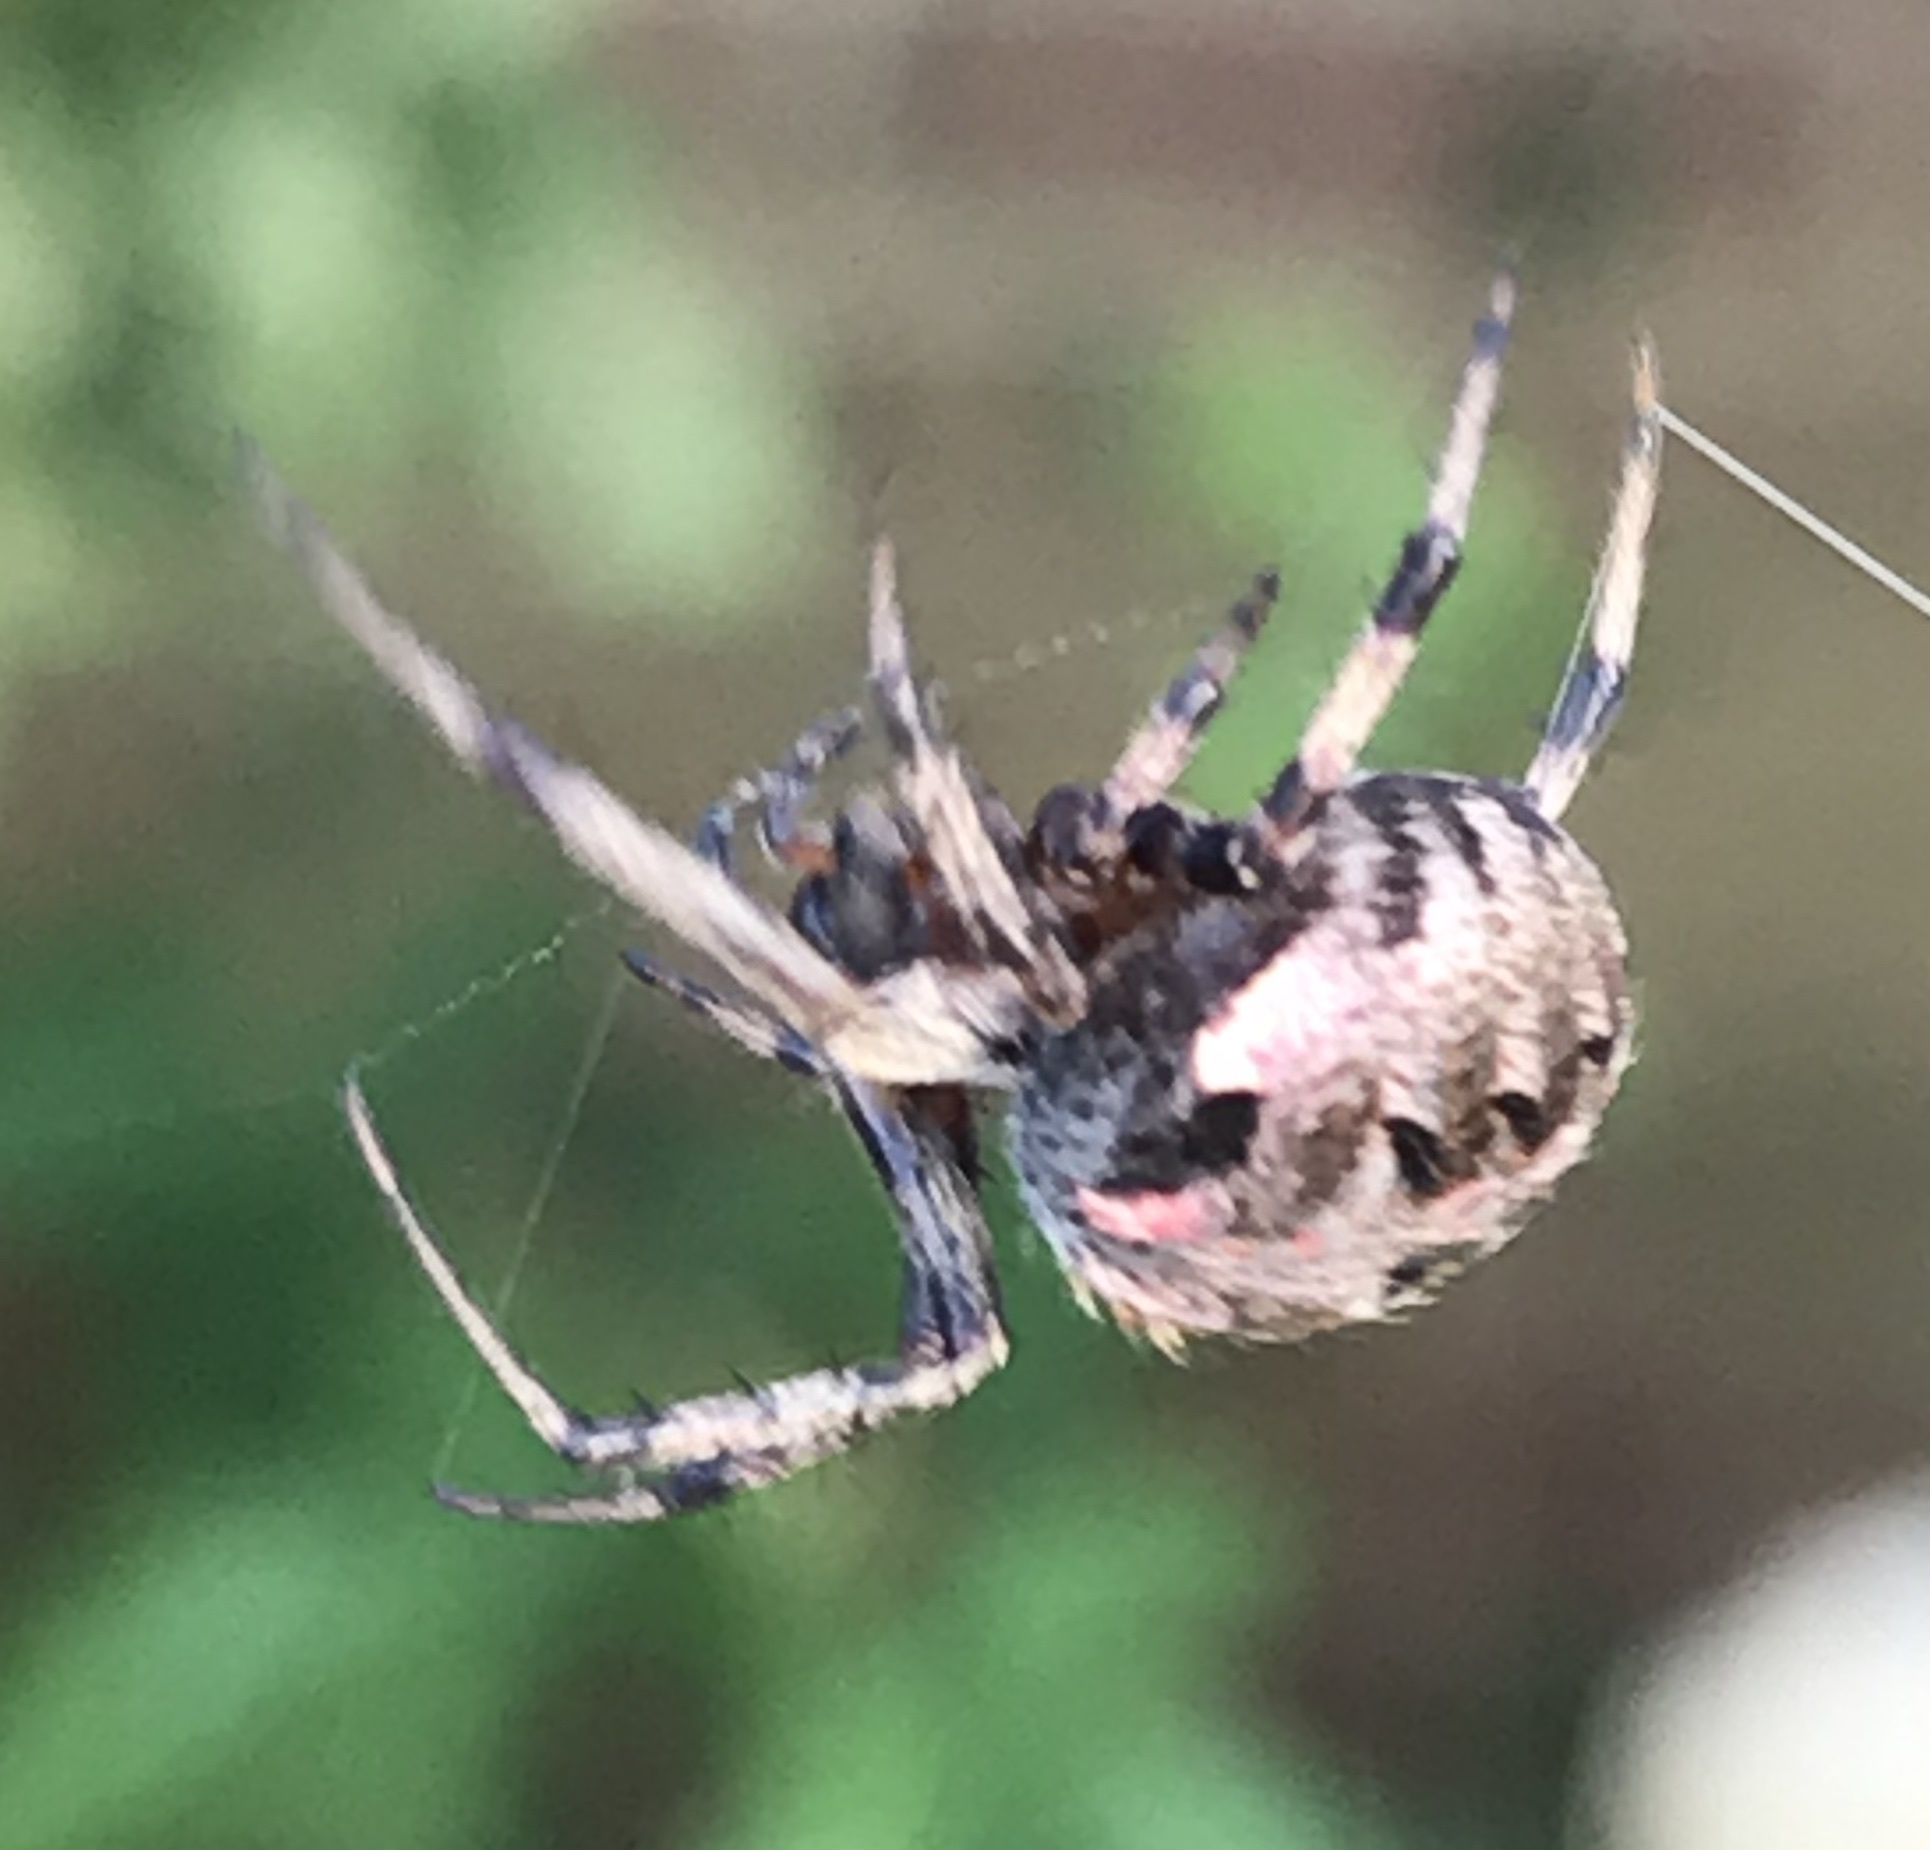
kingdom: Animalia
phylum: Arthropoda
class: Arachnida
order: Araneae
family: Araneidae
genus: Neoscona
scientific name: Neoscona arabesca
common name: Orb weavers
